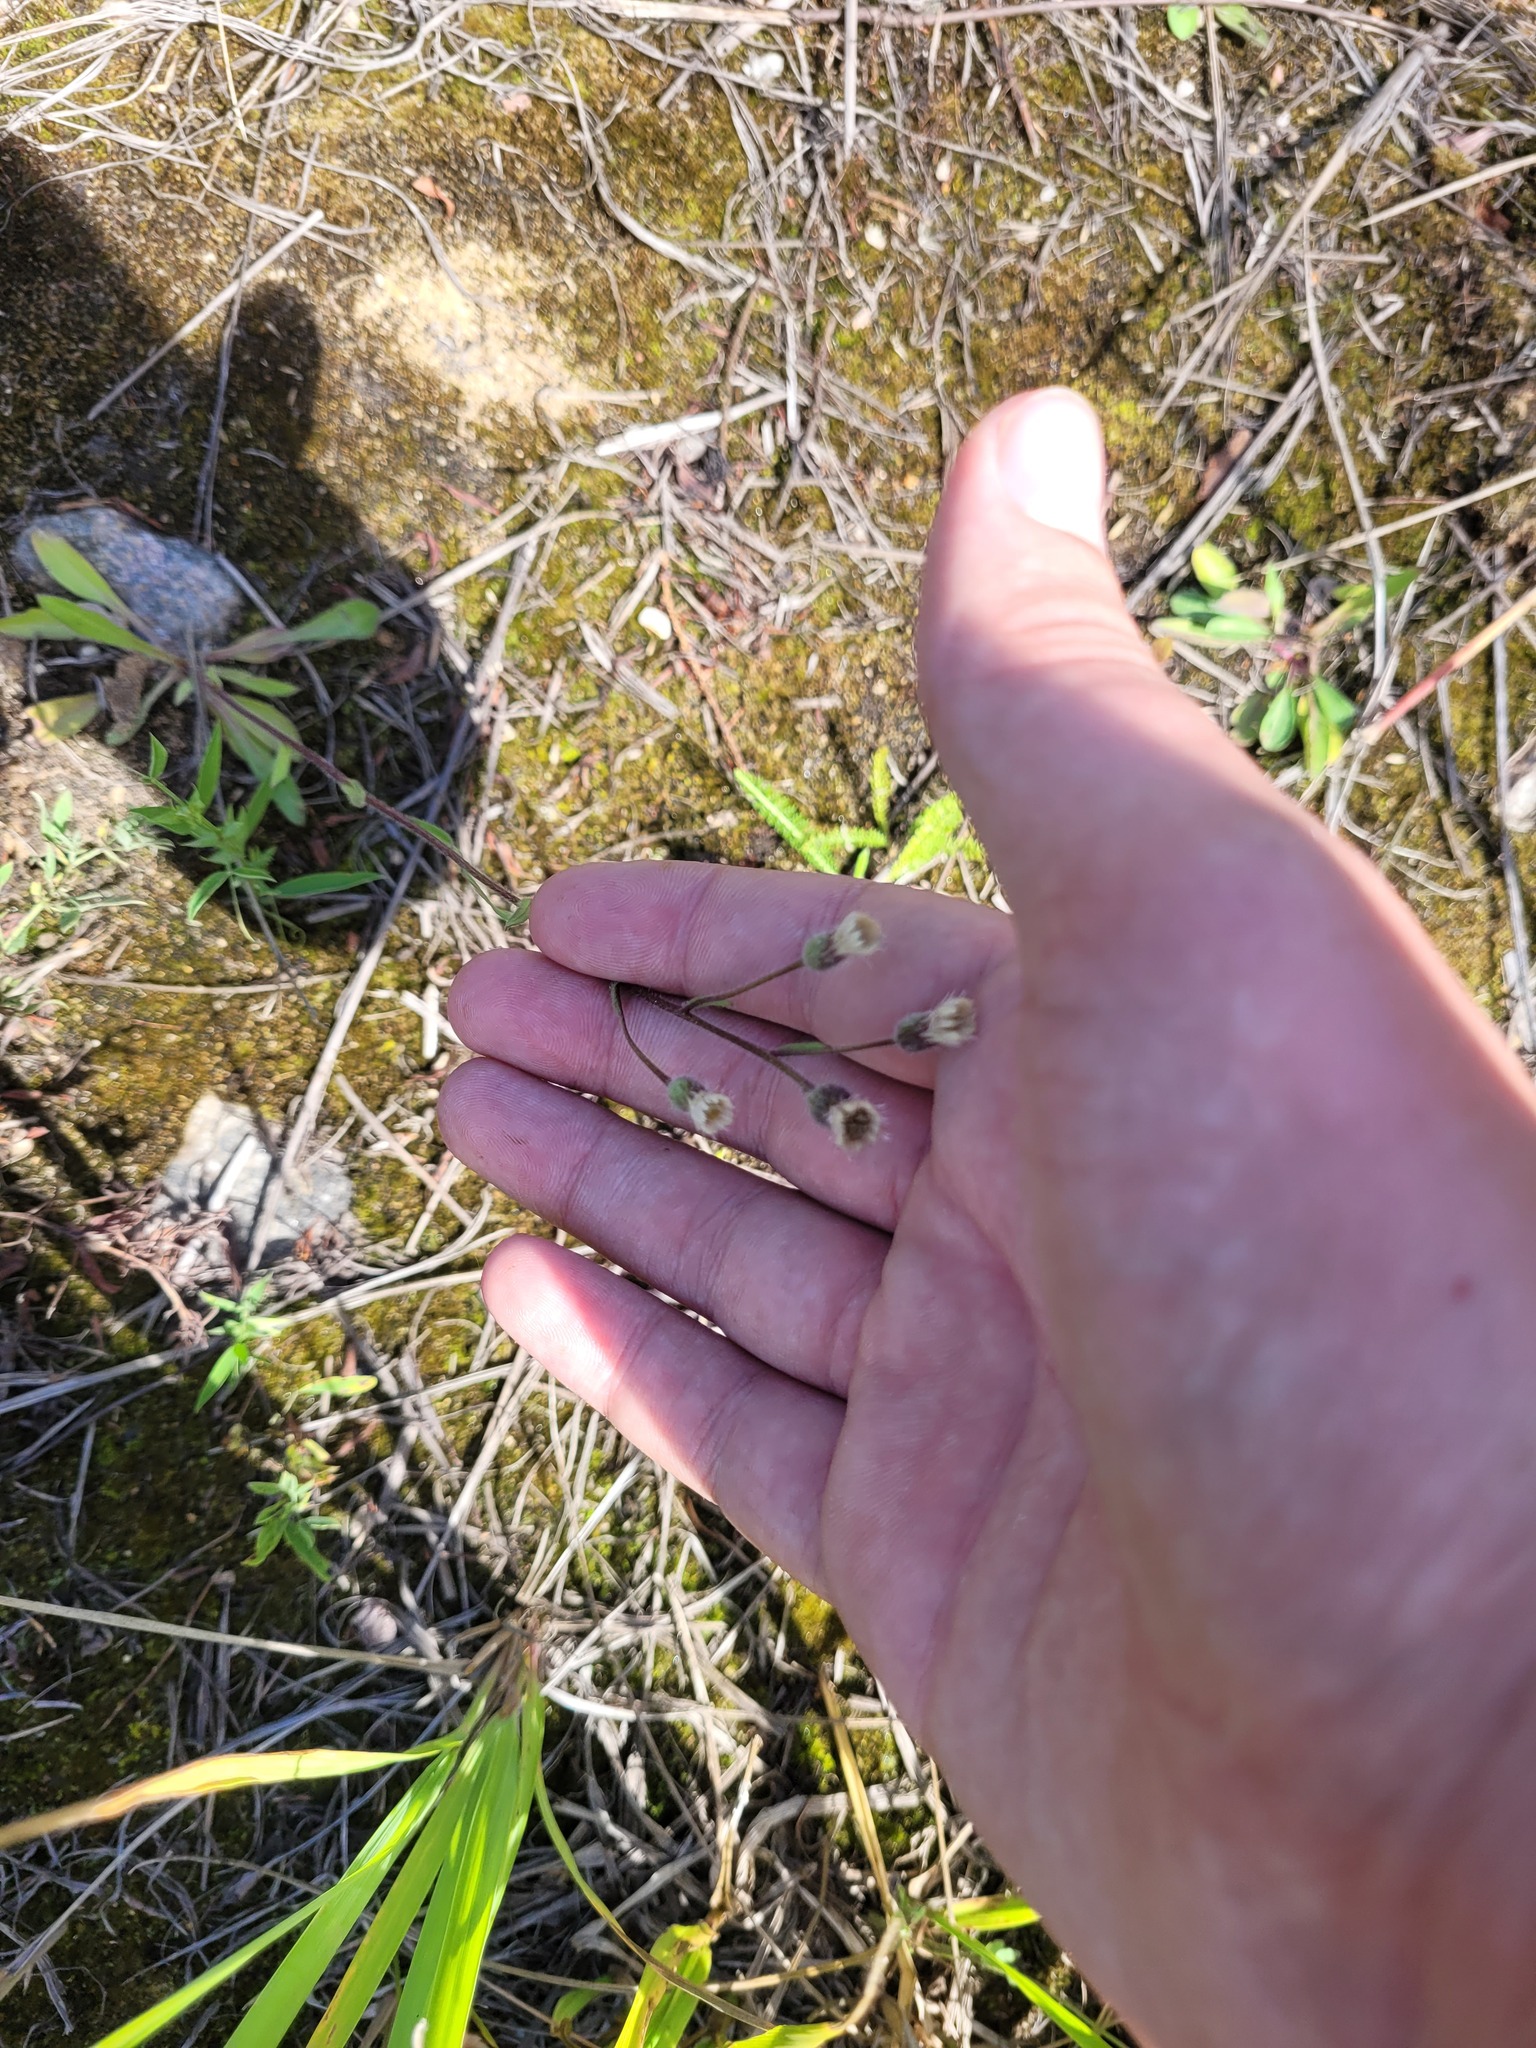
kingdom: Plantae
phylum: Tracheophyta
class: Magnoliopsida
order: Asterales
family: Asteraceae
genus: Erigeron
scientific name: Erigeron acris
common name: Blue fleabane
